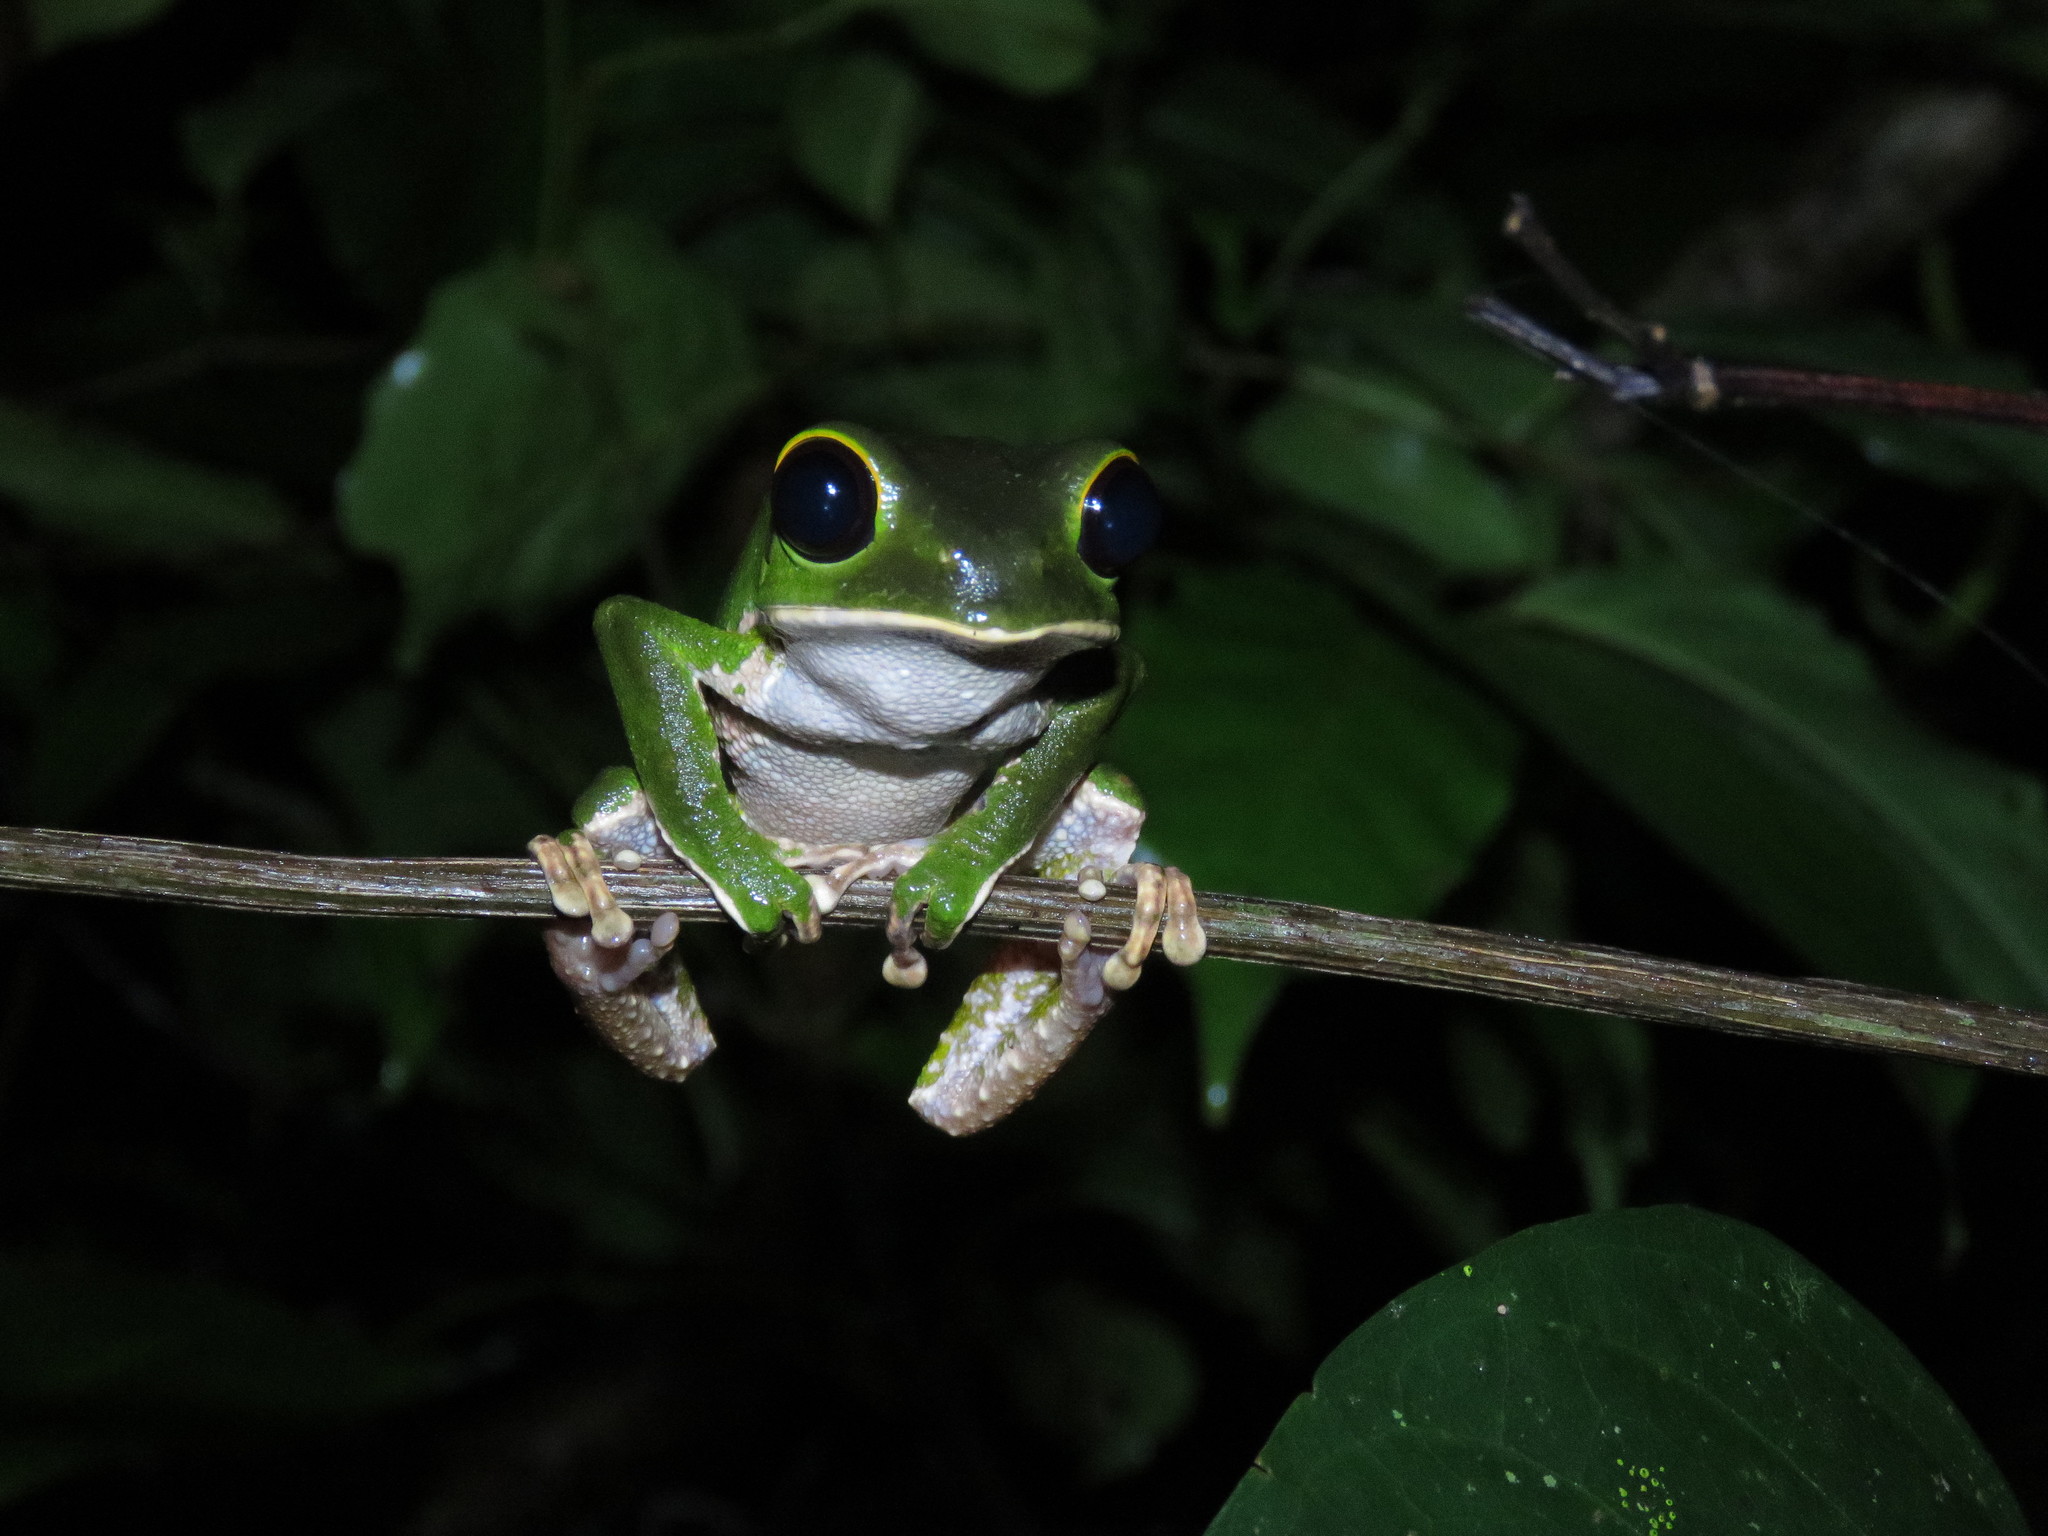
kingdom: Animalia
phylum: Chordata
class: Amphibia
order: Anura
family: Phyllomedusidae
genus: Phyllomedusa
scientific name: Phyllomedusa camba
